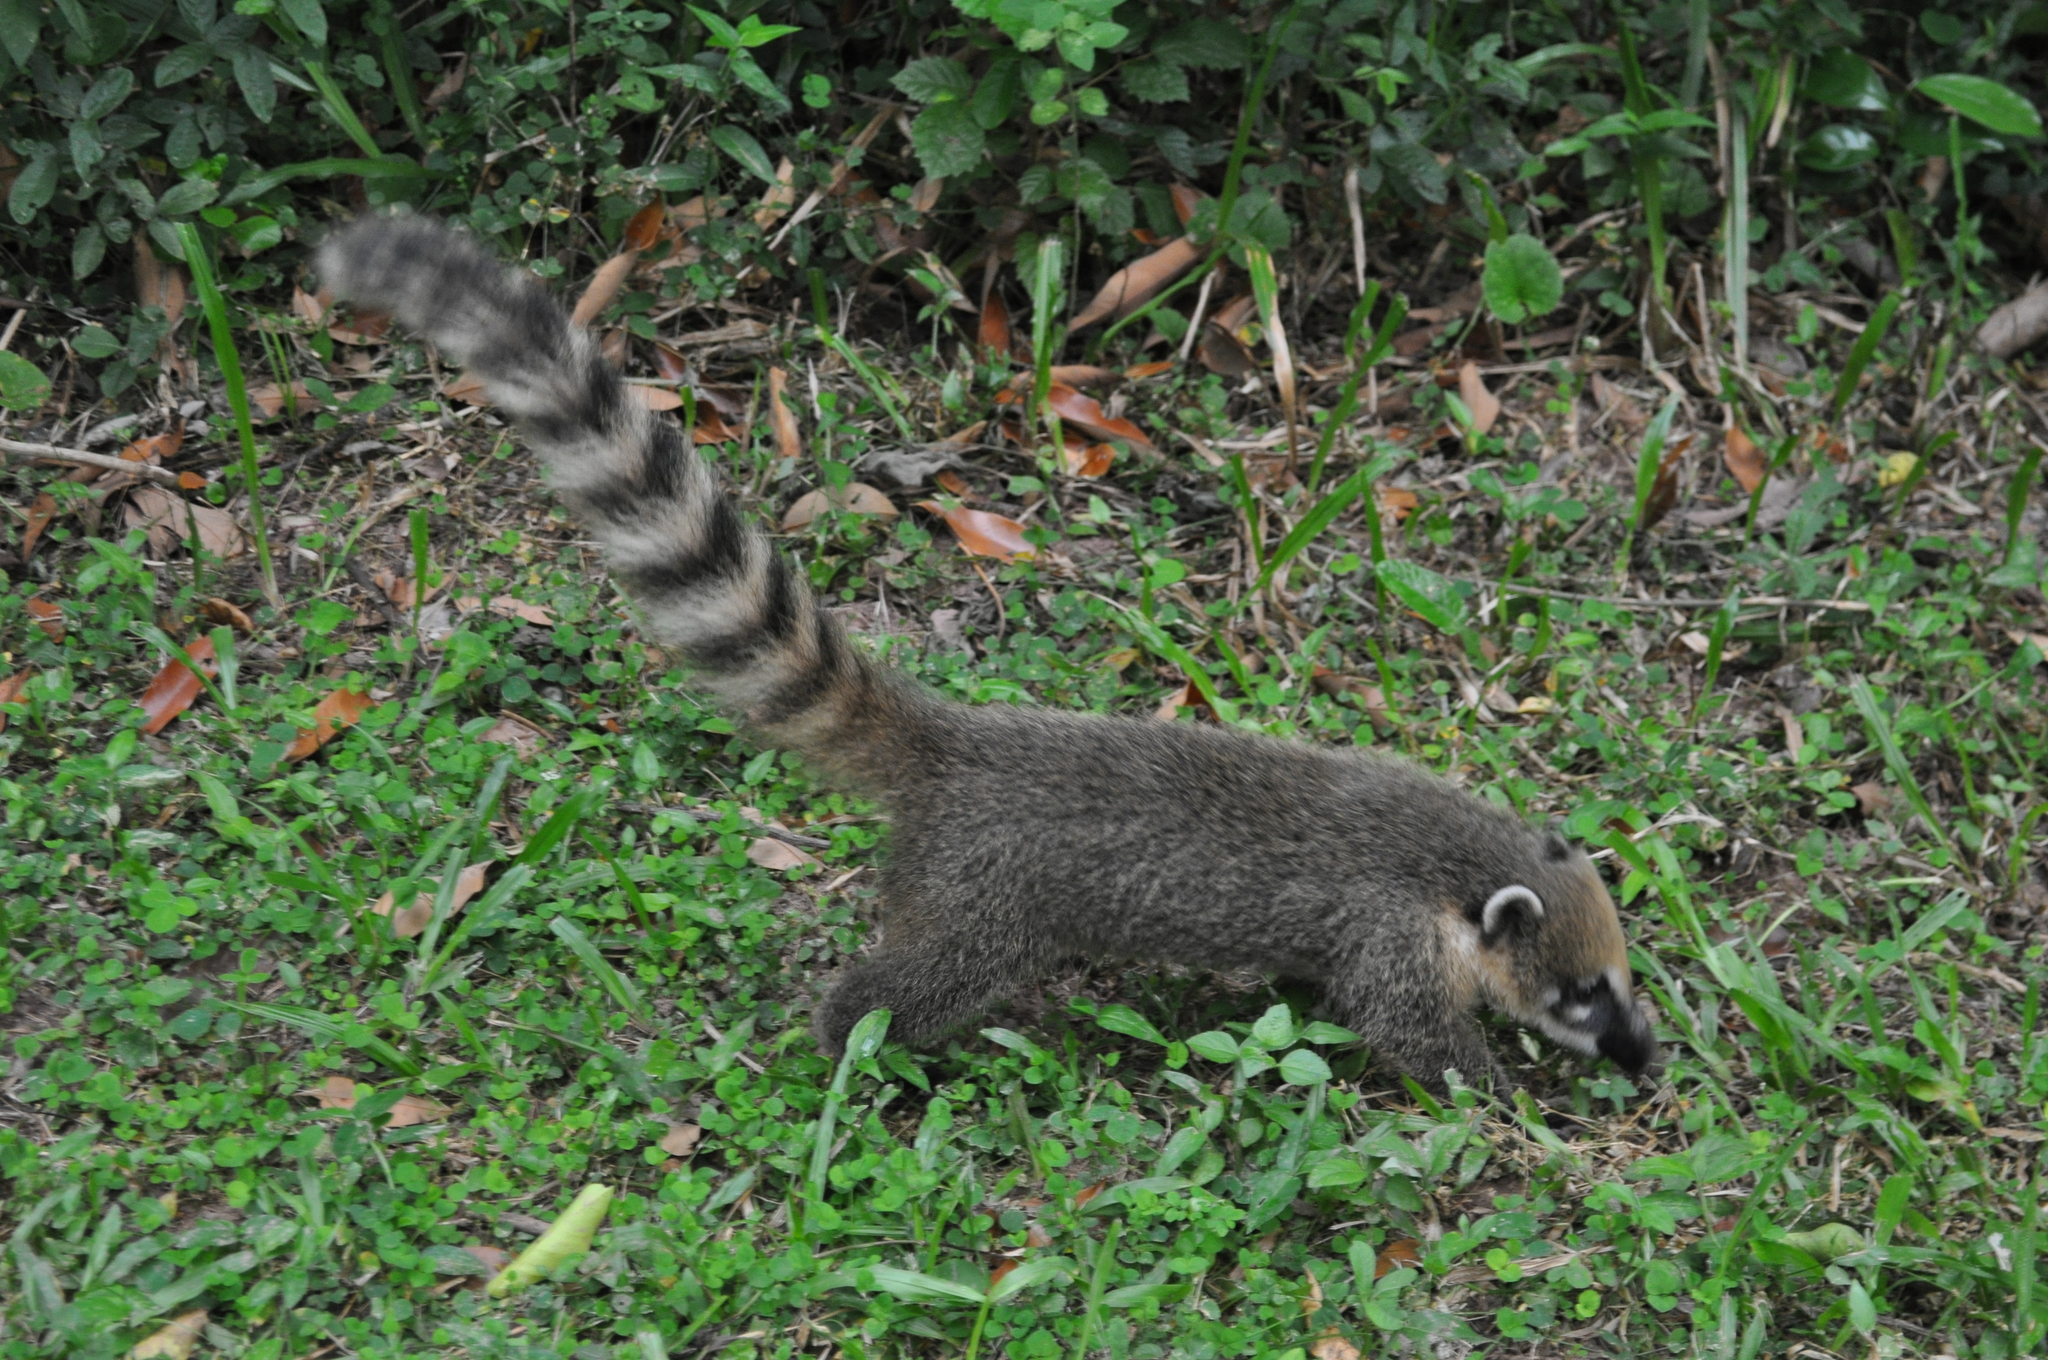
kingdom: Animalia
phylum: Chordata
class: Mammalia
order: Carnivora
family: Procyonidae
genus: Nasua
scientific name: Nasua nasua
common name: South american coati
